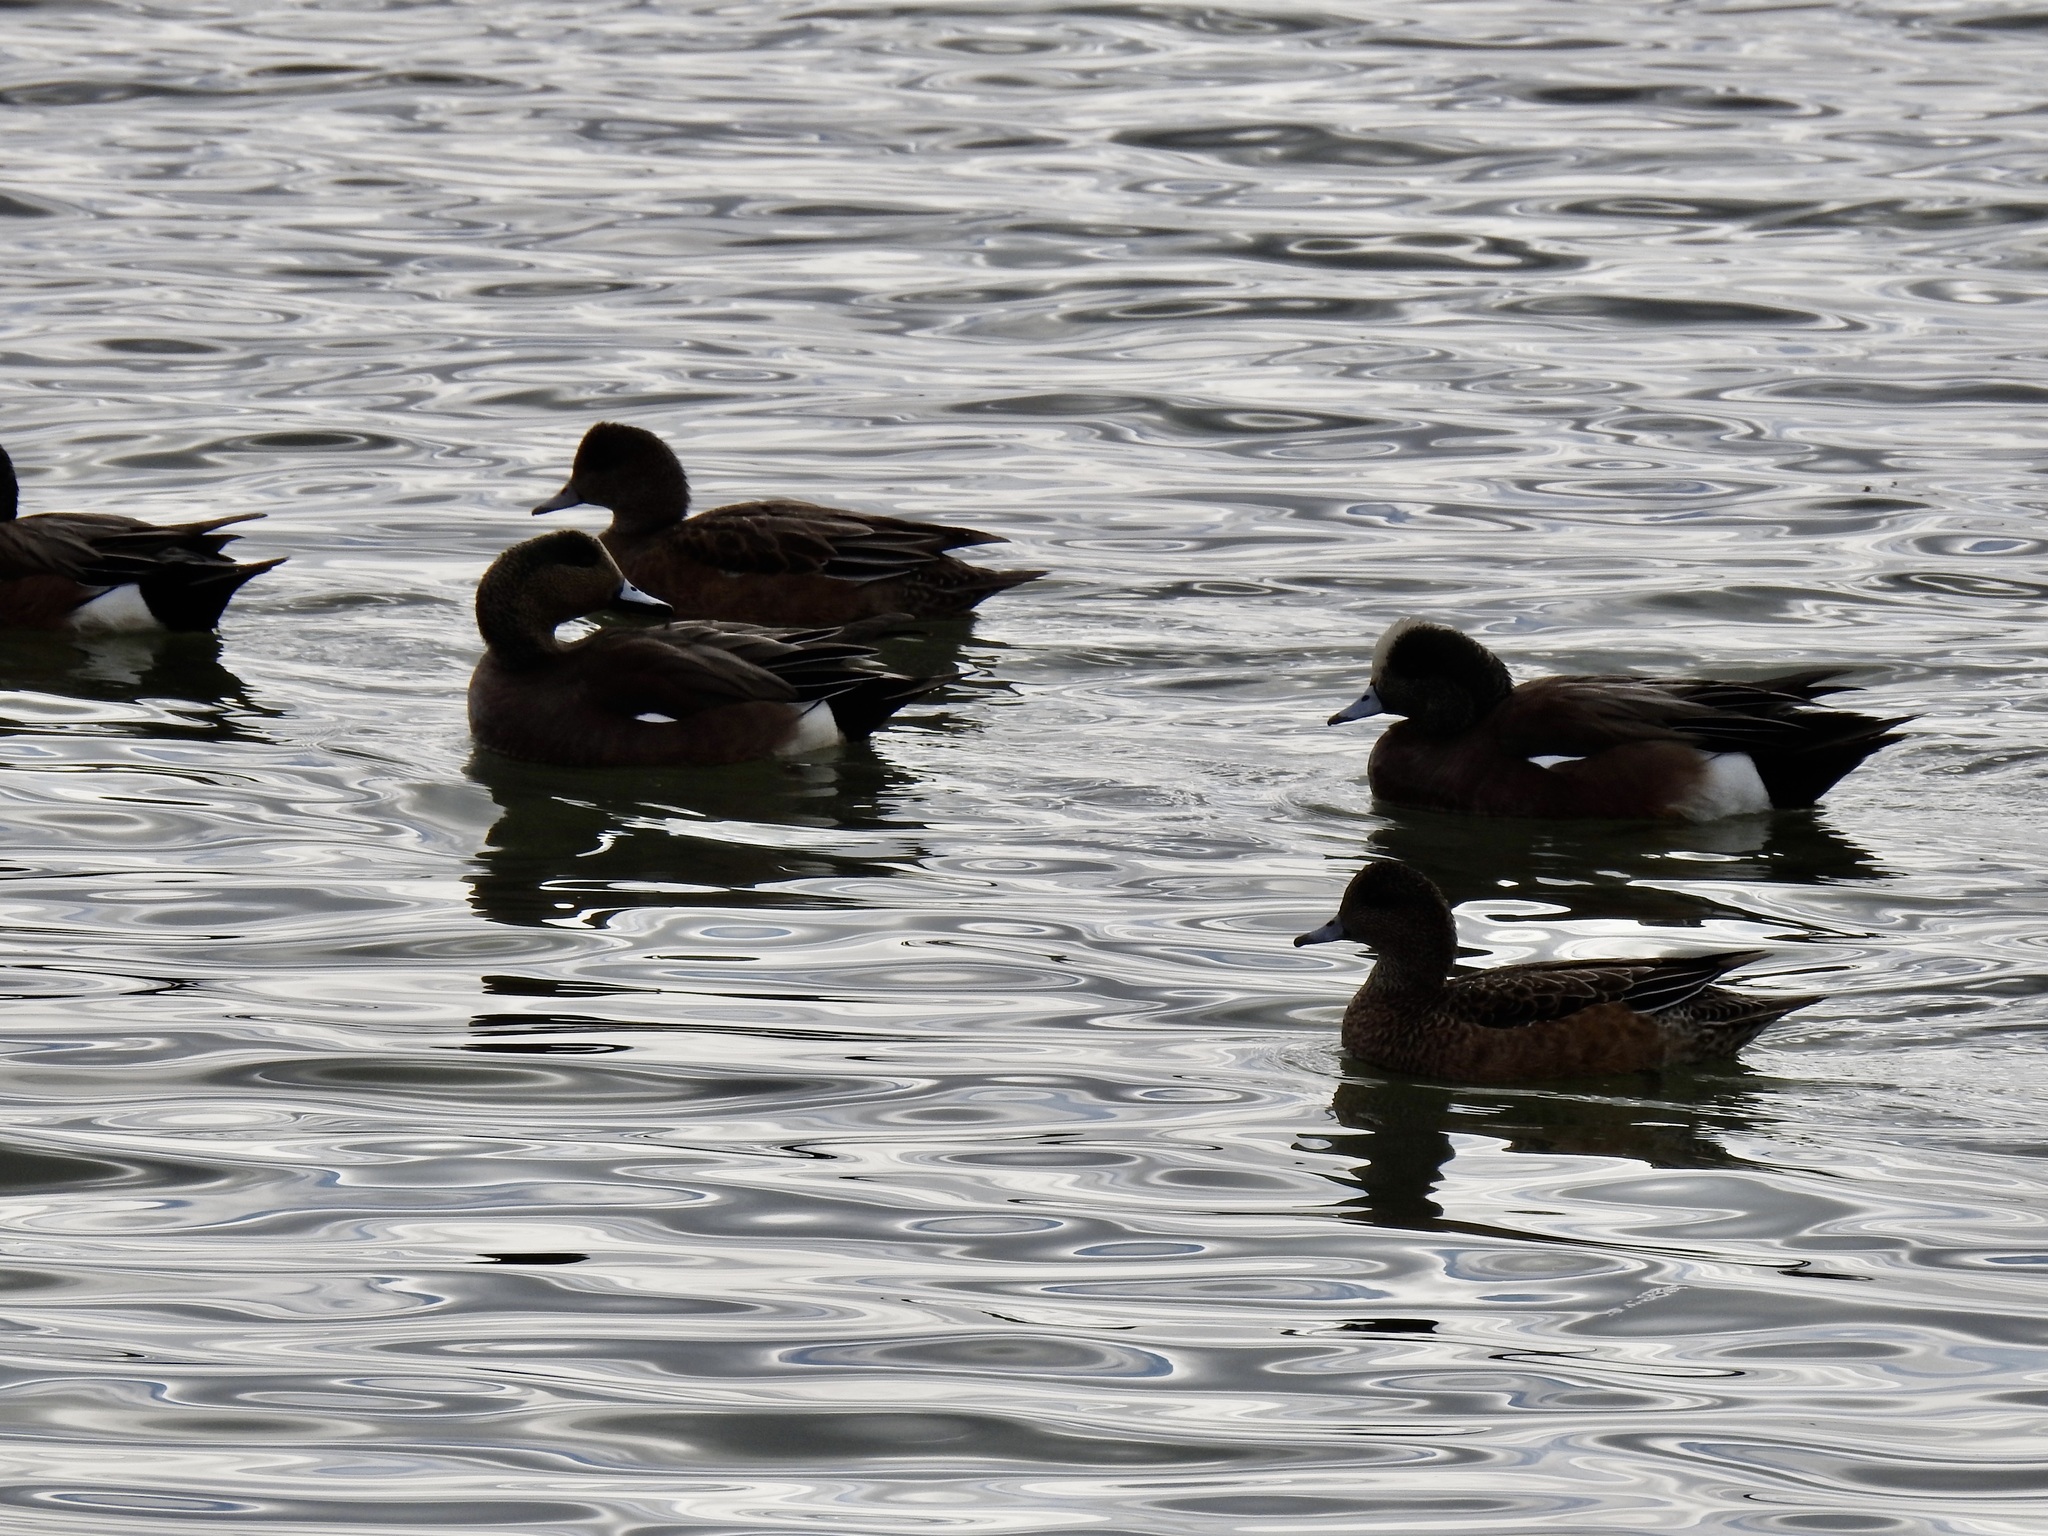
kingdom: Animalia
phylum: Chordata
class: Aves
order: Anseriformes
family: Anatidae
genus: Mareca
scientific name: Mareca americana
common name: American wigeon
